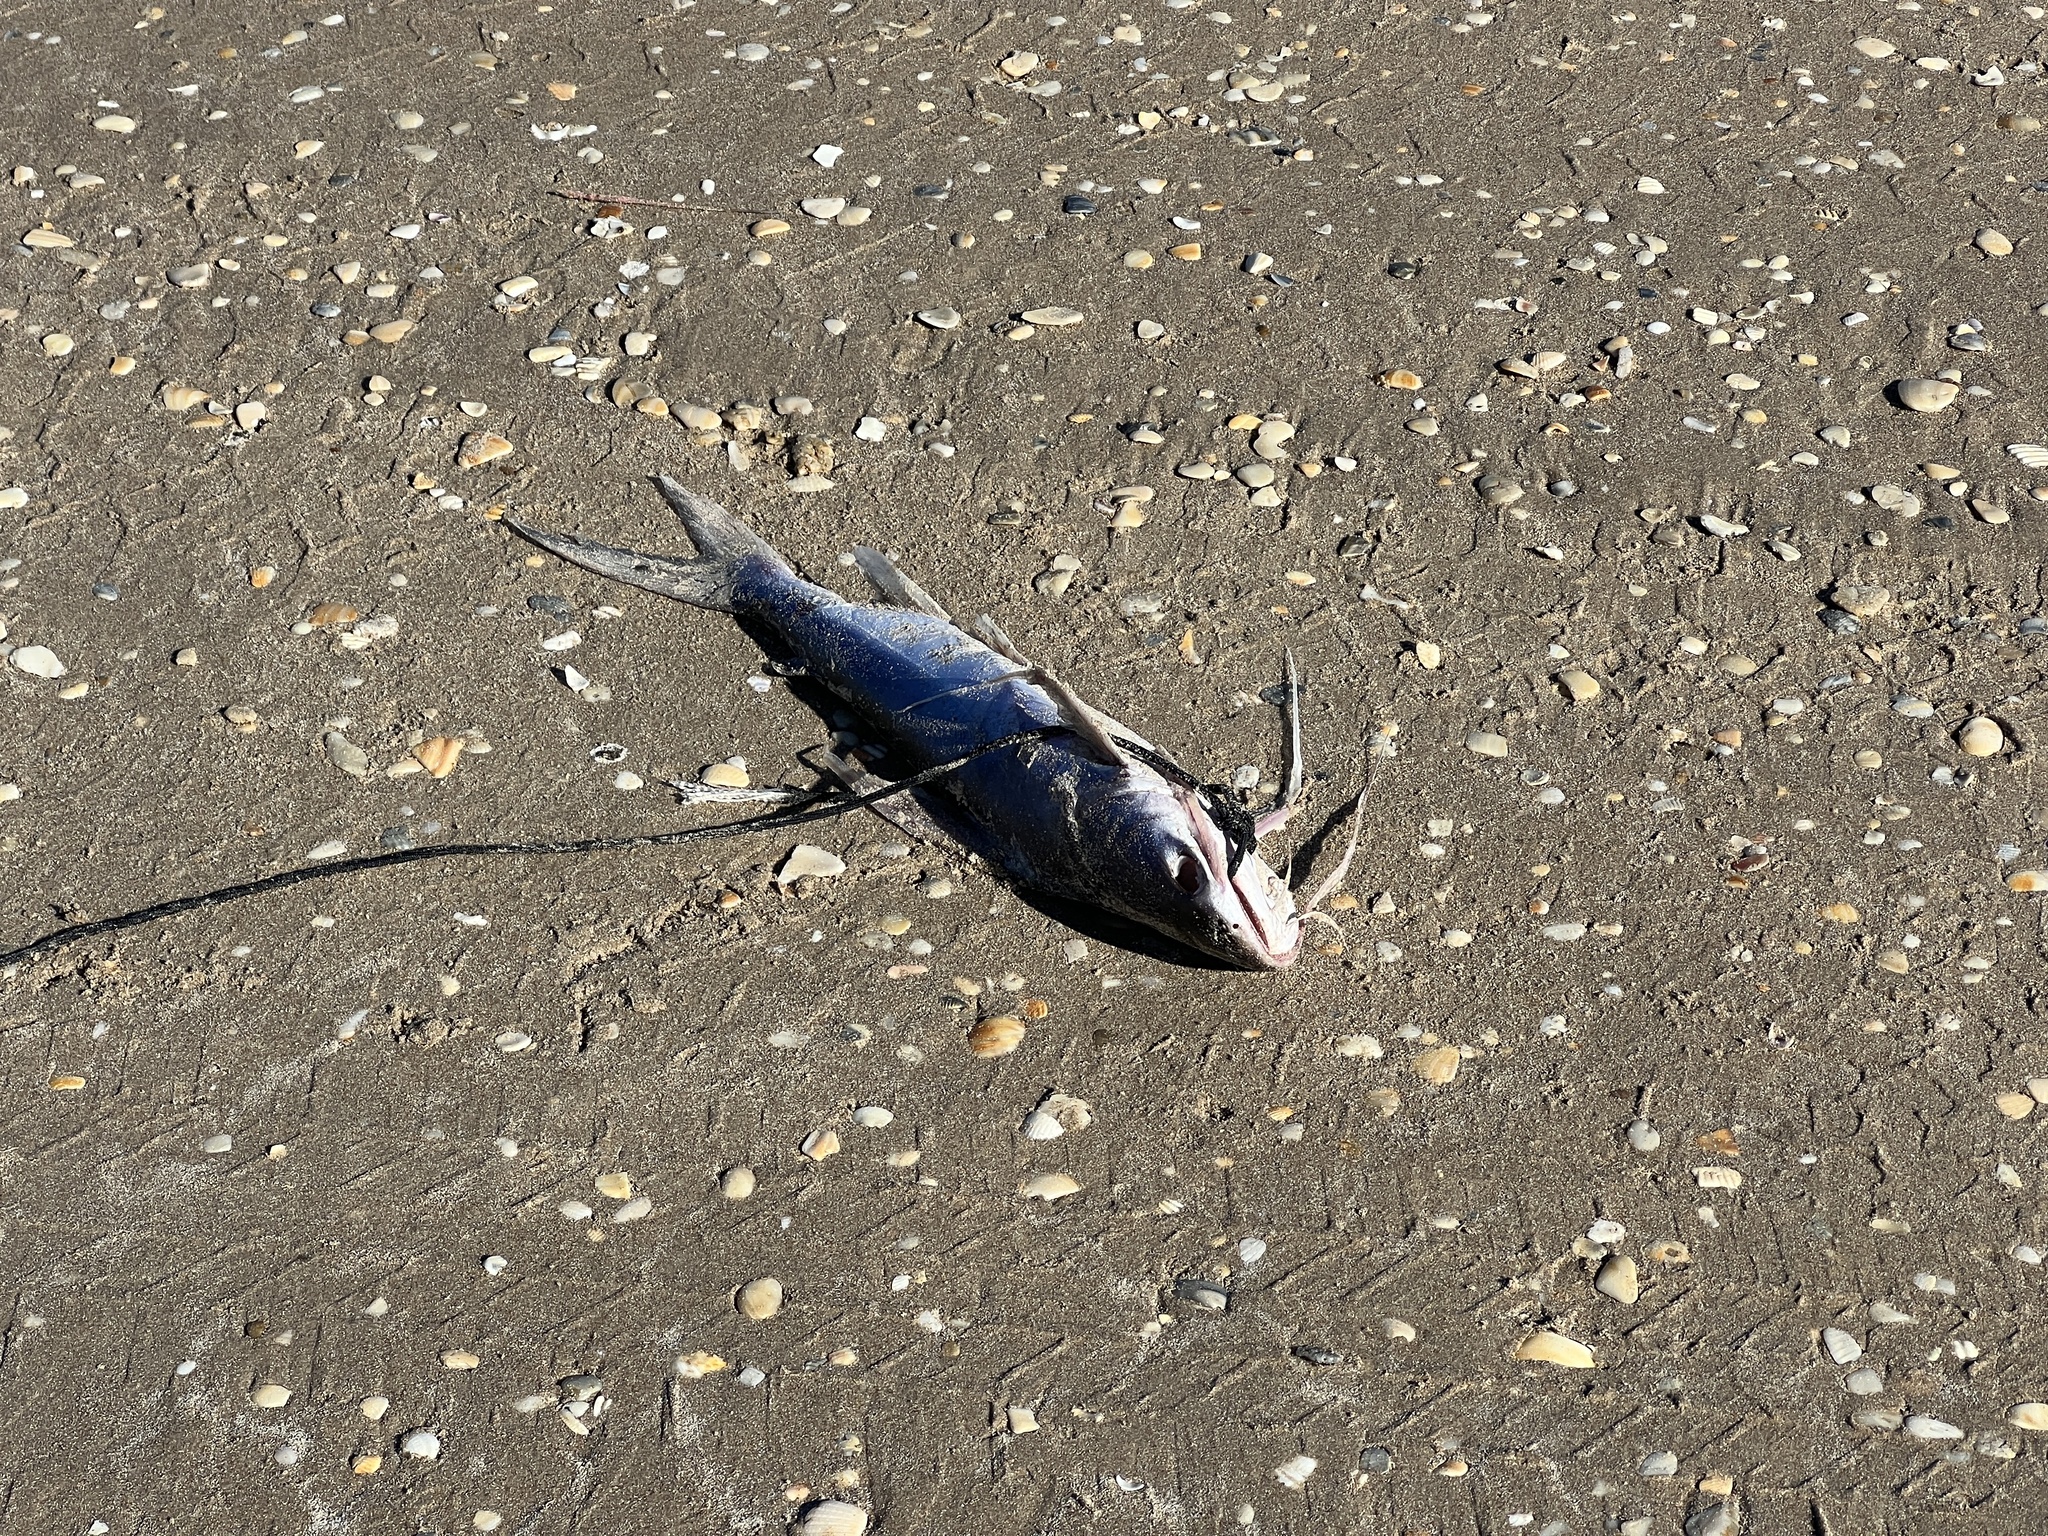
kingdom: Animalia
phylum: Chordata
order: Siluriformes
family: Ariidae
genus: Bagre
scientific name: Bagre marinus
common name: Gafftopsail sea catfish
